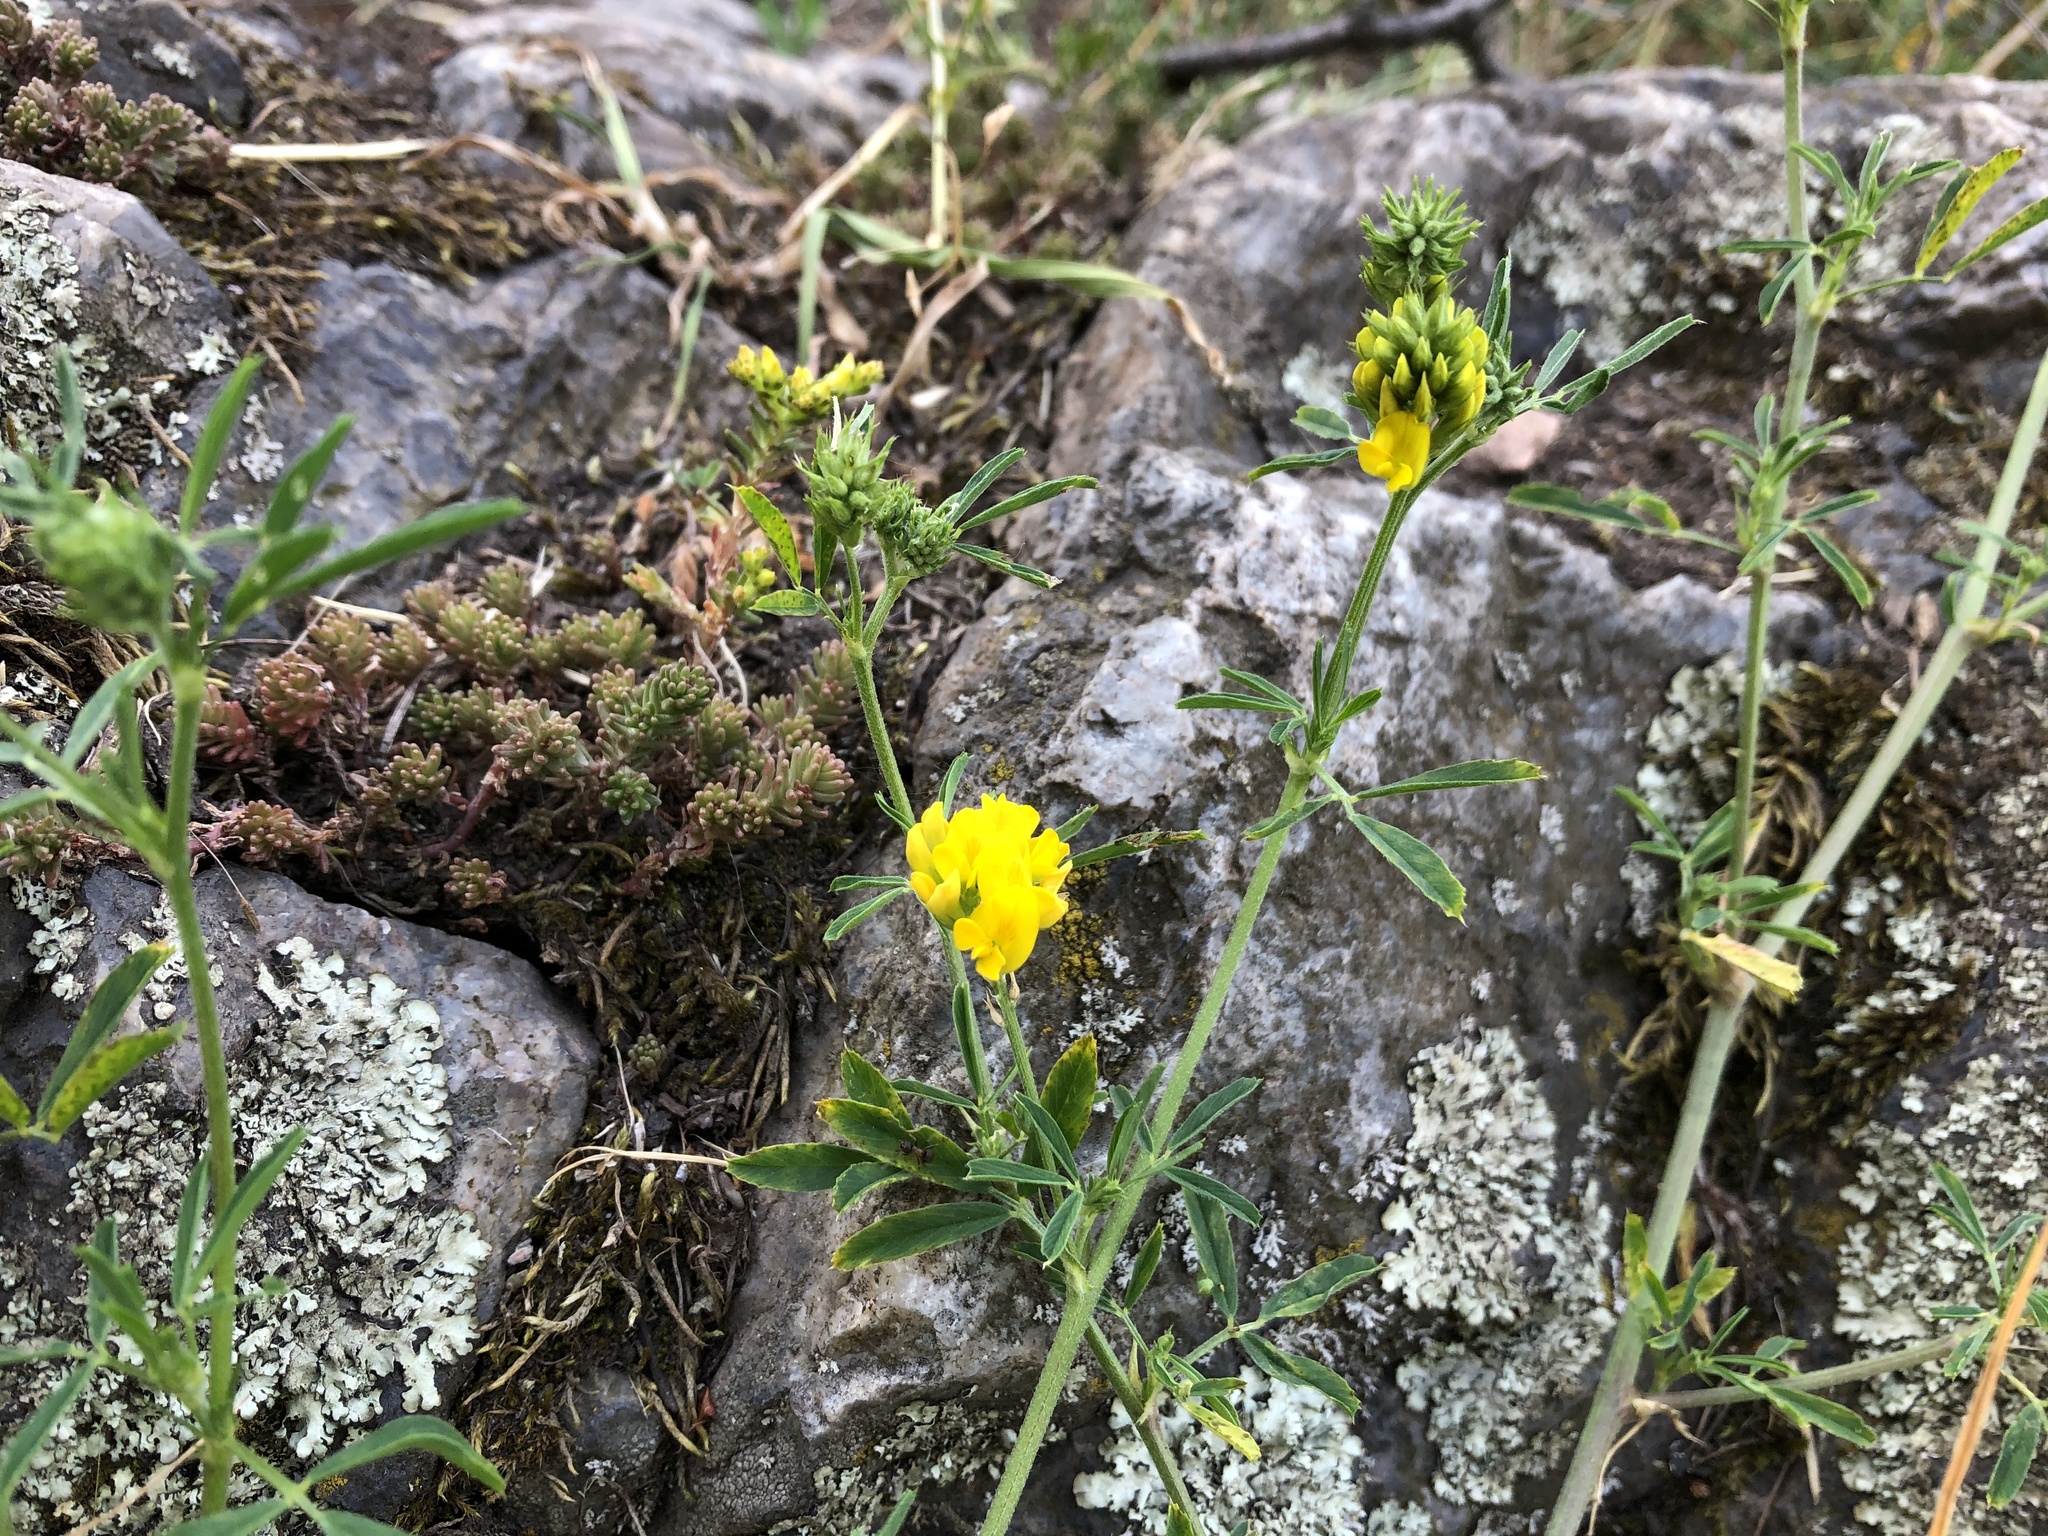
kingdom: Plantae
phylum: Tracheophyta
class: Magnoliopsida
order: Fabales
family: Fabaceae
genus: Medicago
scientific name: Medicago falcata
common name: Sickle medick
